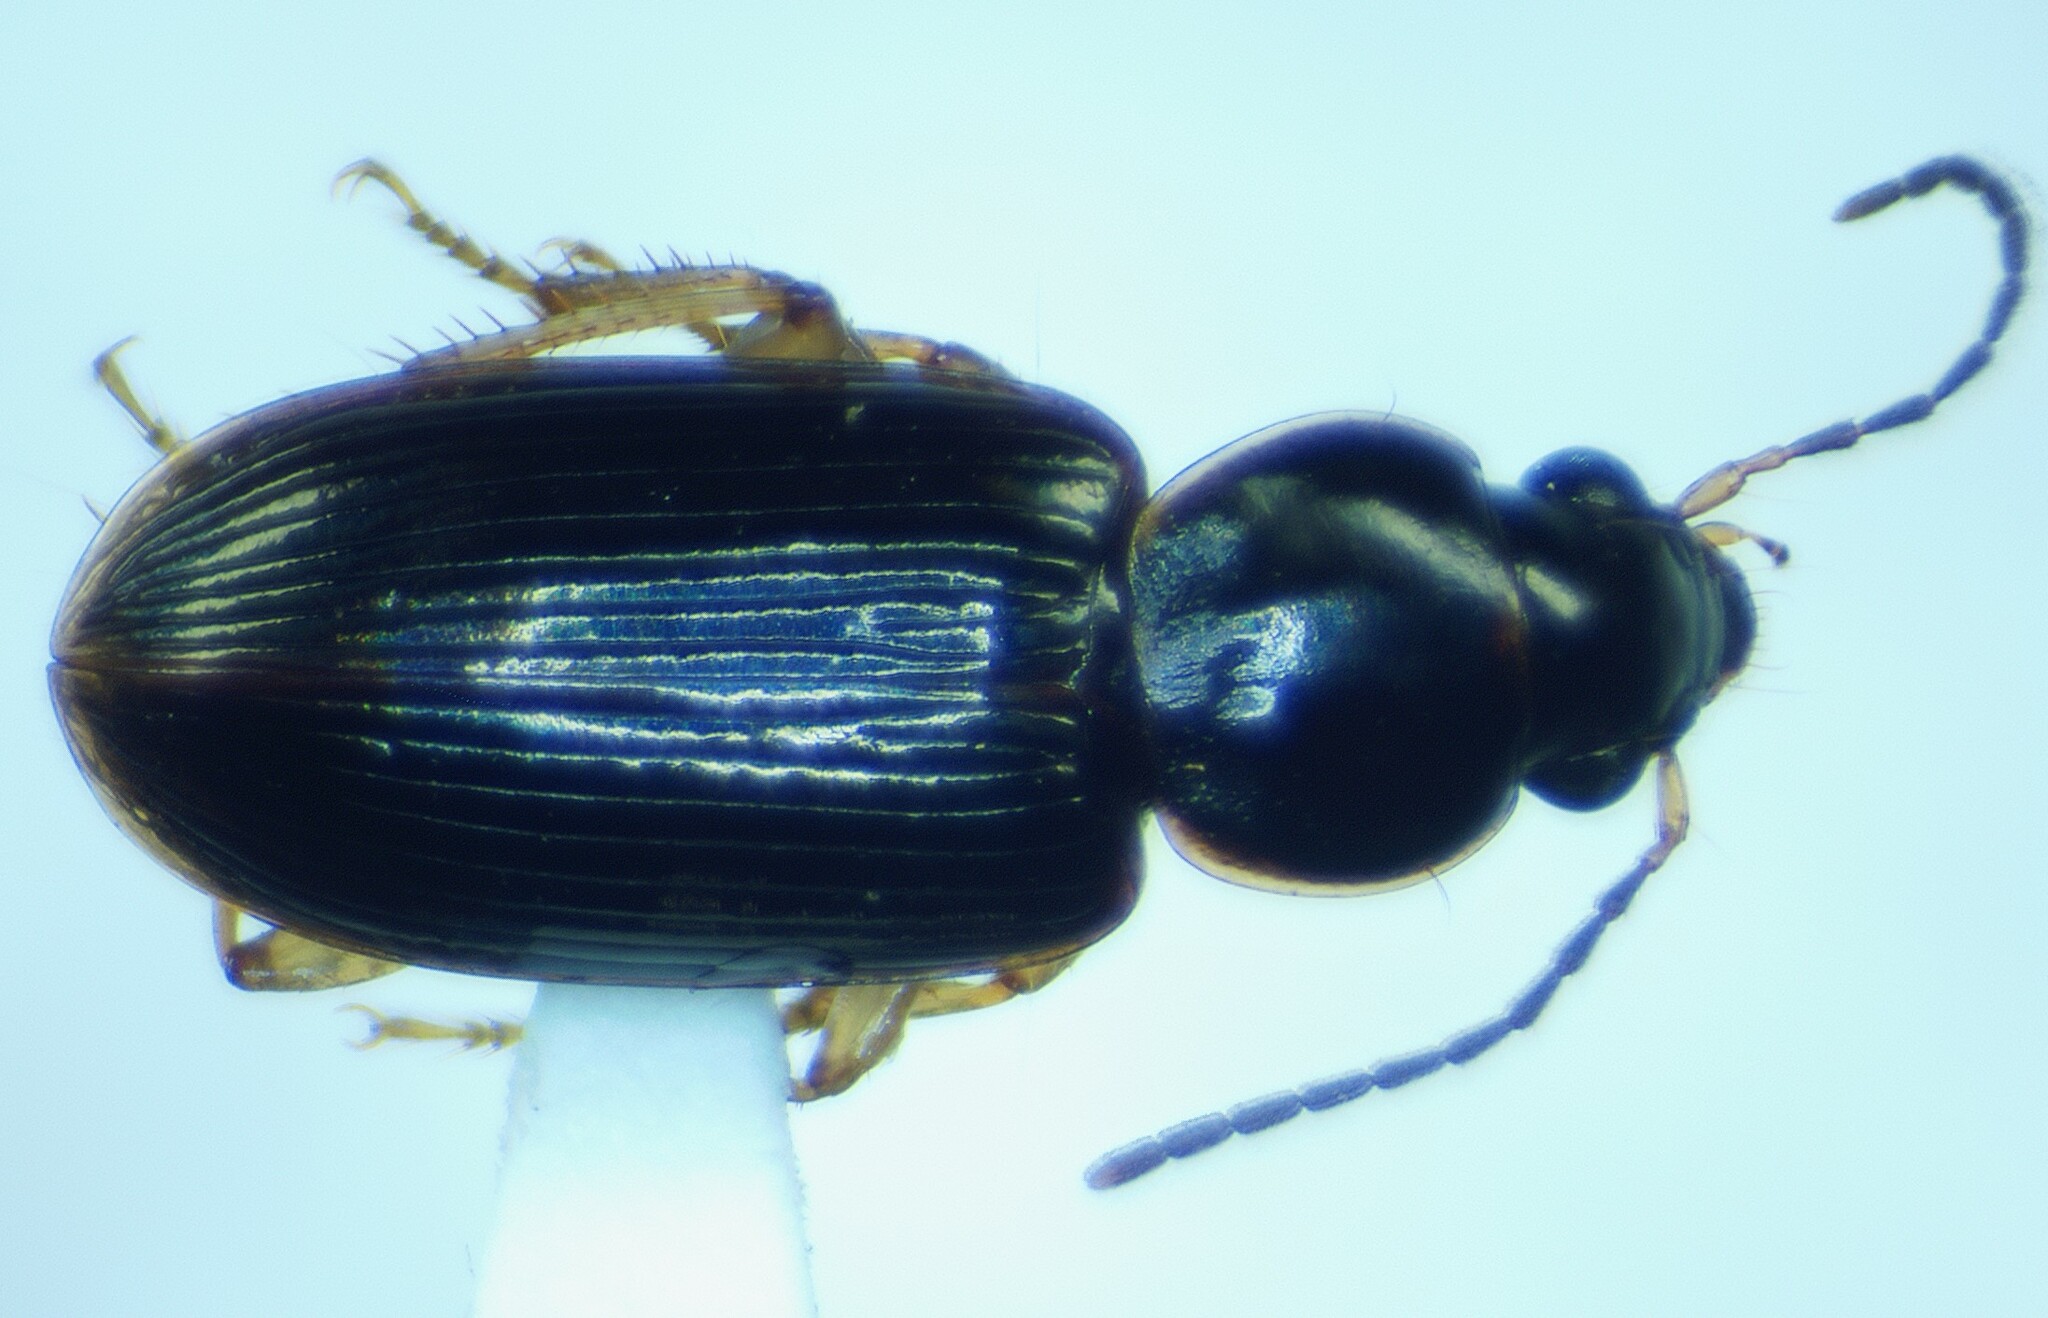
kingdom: Animalia
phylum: Arthropoda
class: Insecta
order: Coleoptera
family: Carabidae
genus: Stenolophus
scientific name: Stenolophus ochropezus
